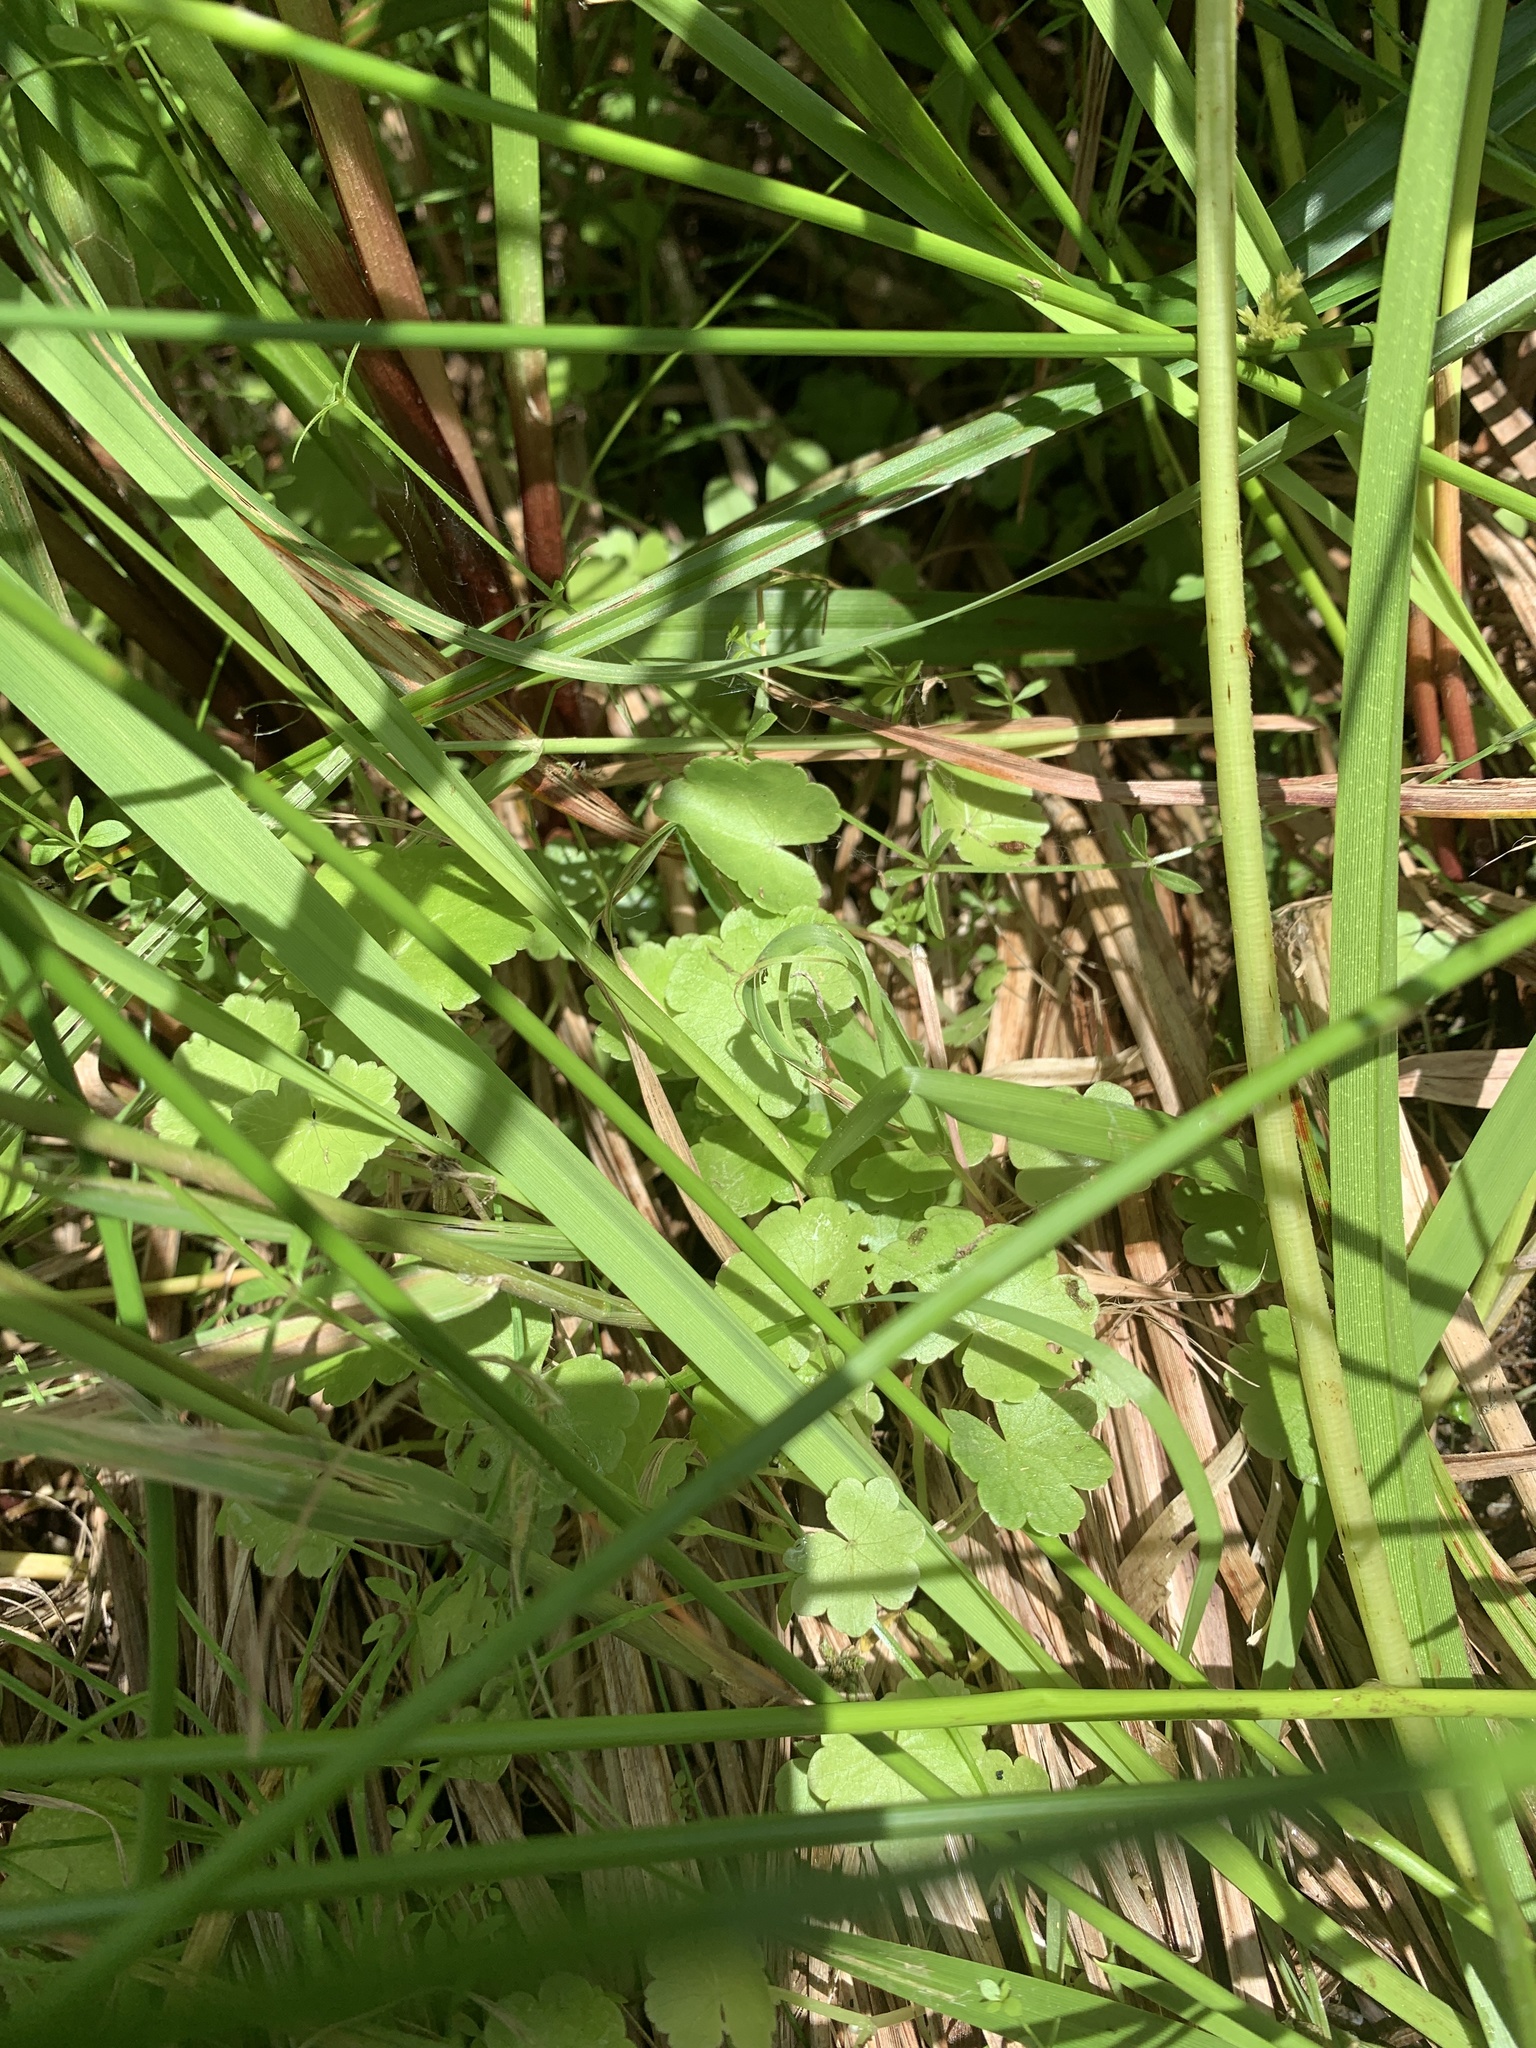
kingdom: Plantae
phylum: Tracheophyta
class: Magnoliopsida
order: Apiales
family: Araliaceae
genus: Hydrocotyle
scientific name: Hydrocotyle americana
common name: American water-pennywort
